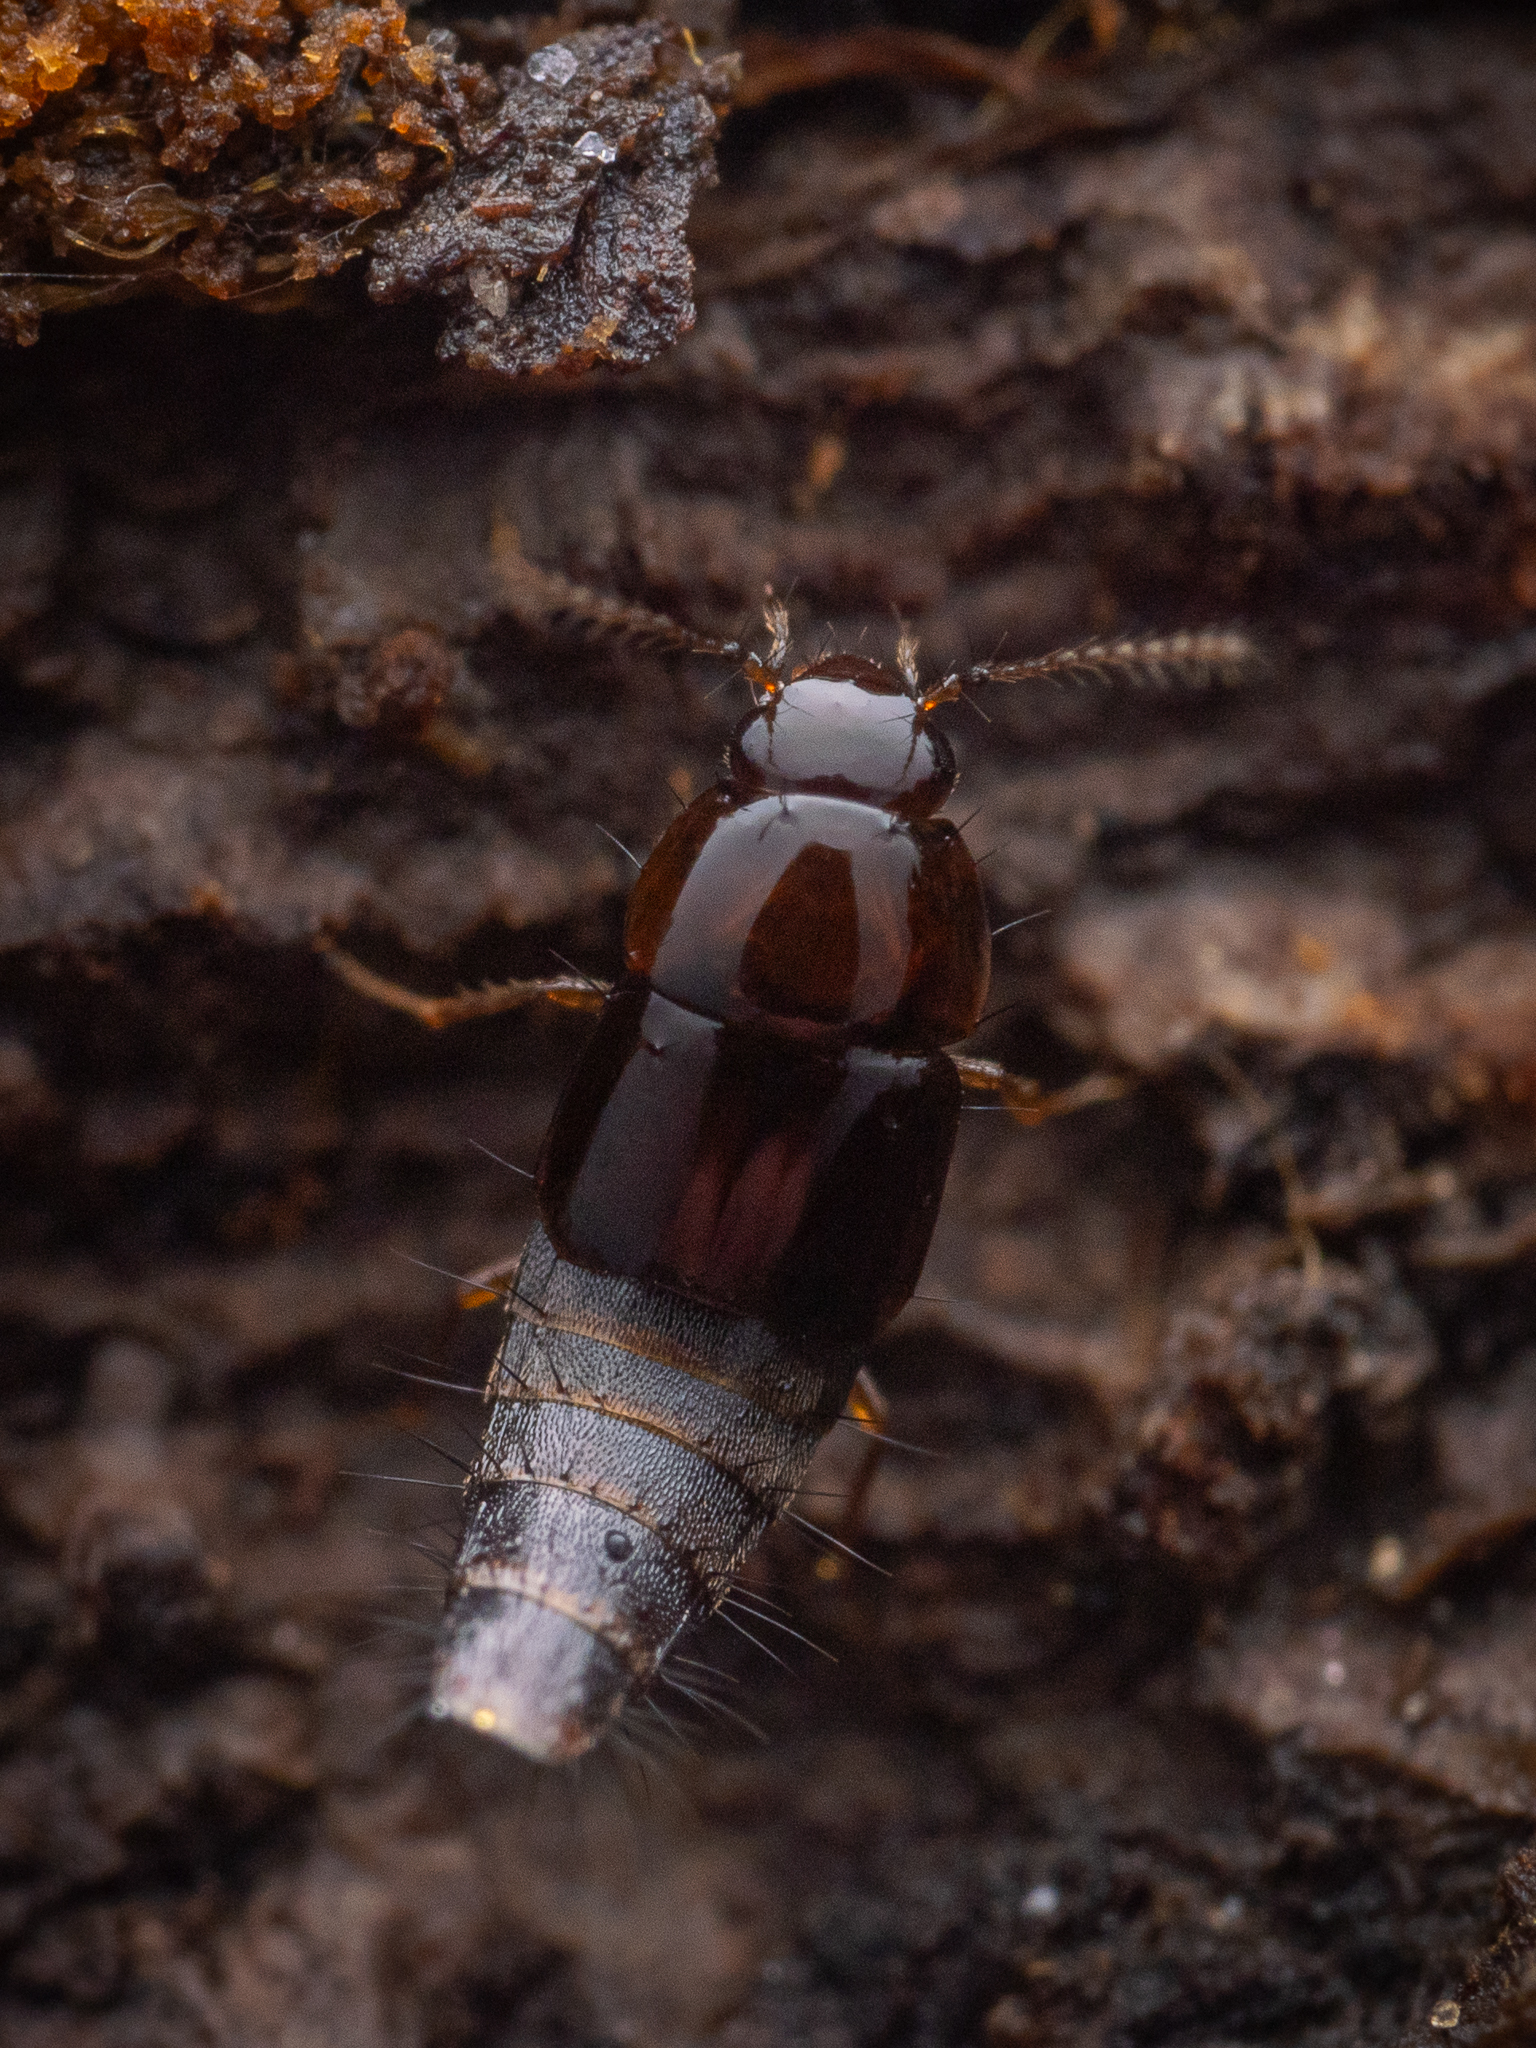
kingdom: Animalia
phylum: Arthropoda
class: Insecta
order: Coleoptera
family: Staphylinidae
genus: Habrocerus
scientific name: Habrocerus capillaricornis
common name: Staph beetle
